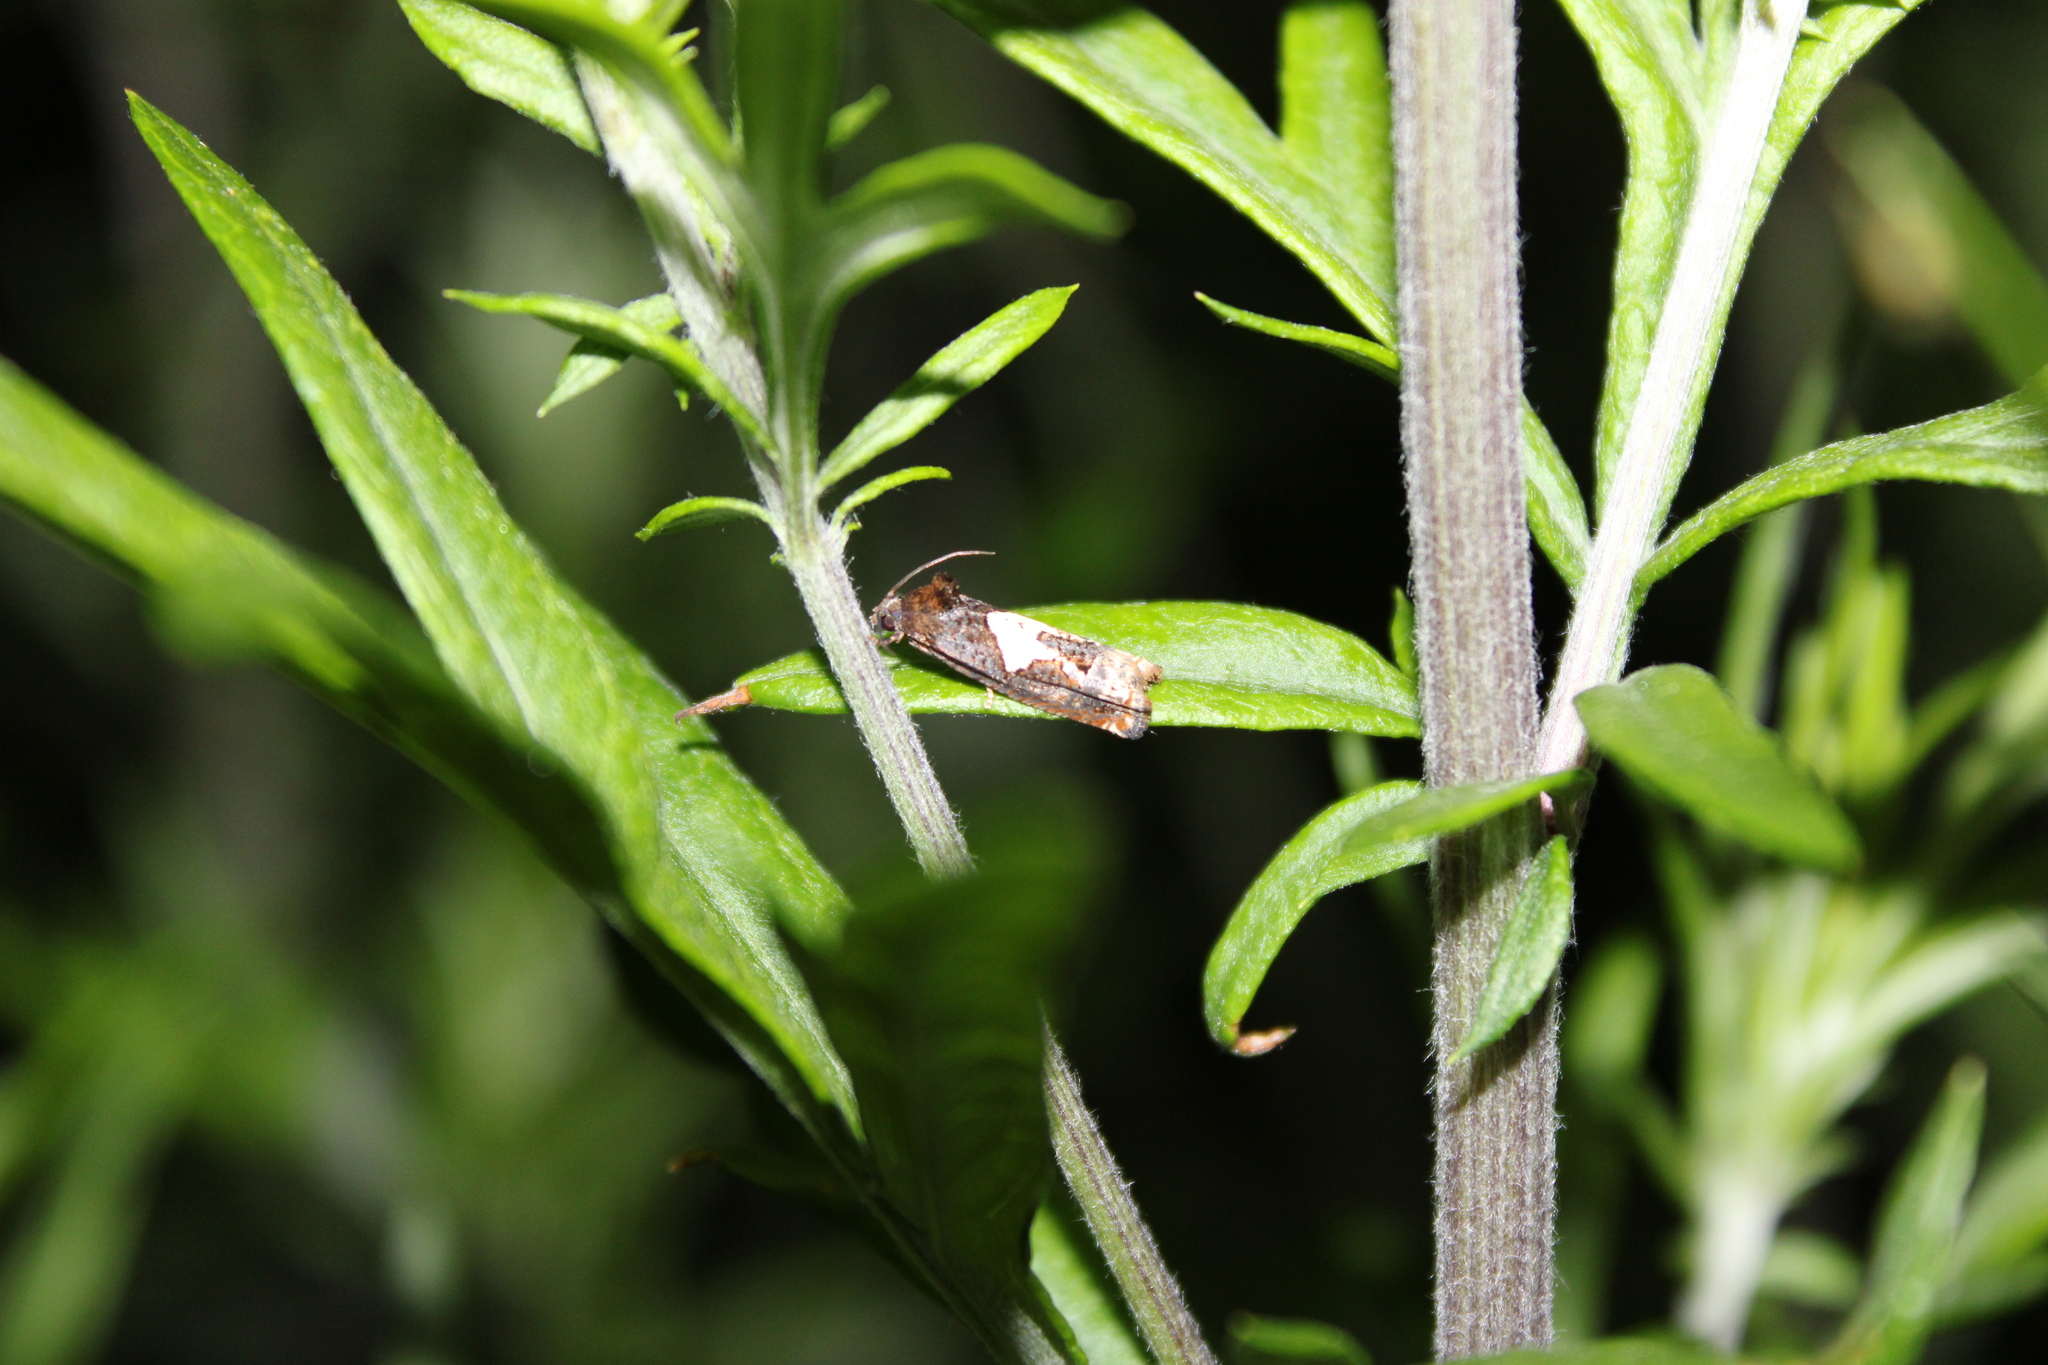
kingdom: Animalia
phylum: Arthropoda
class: Insecta
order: Lepidoptera
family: Tortricidae
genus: Epiblema
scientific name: Epiblema otiosana
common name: Bidens borer moth
